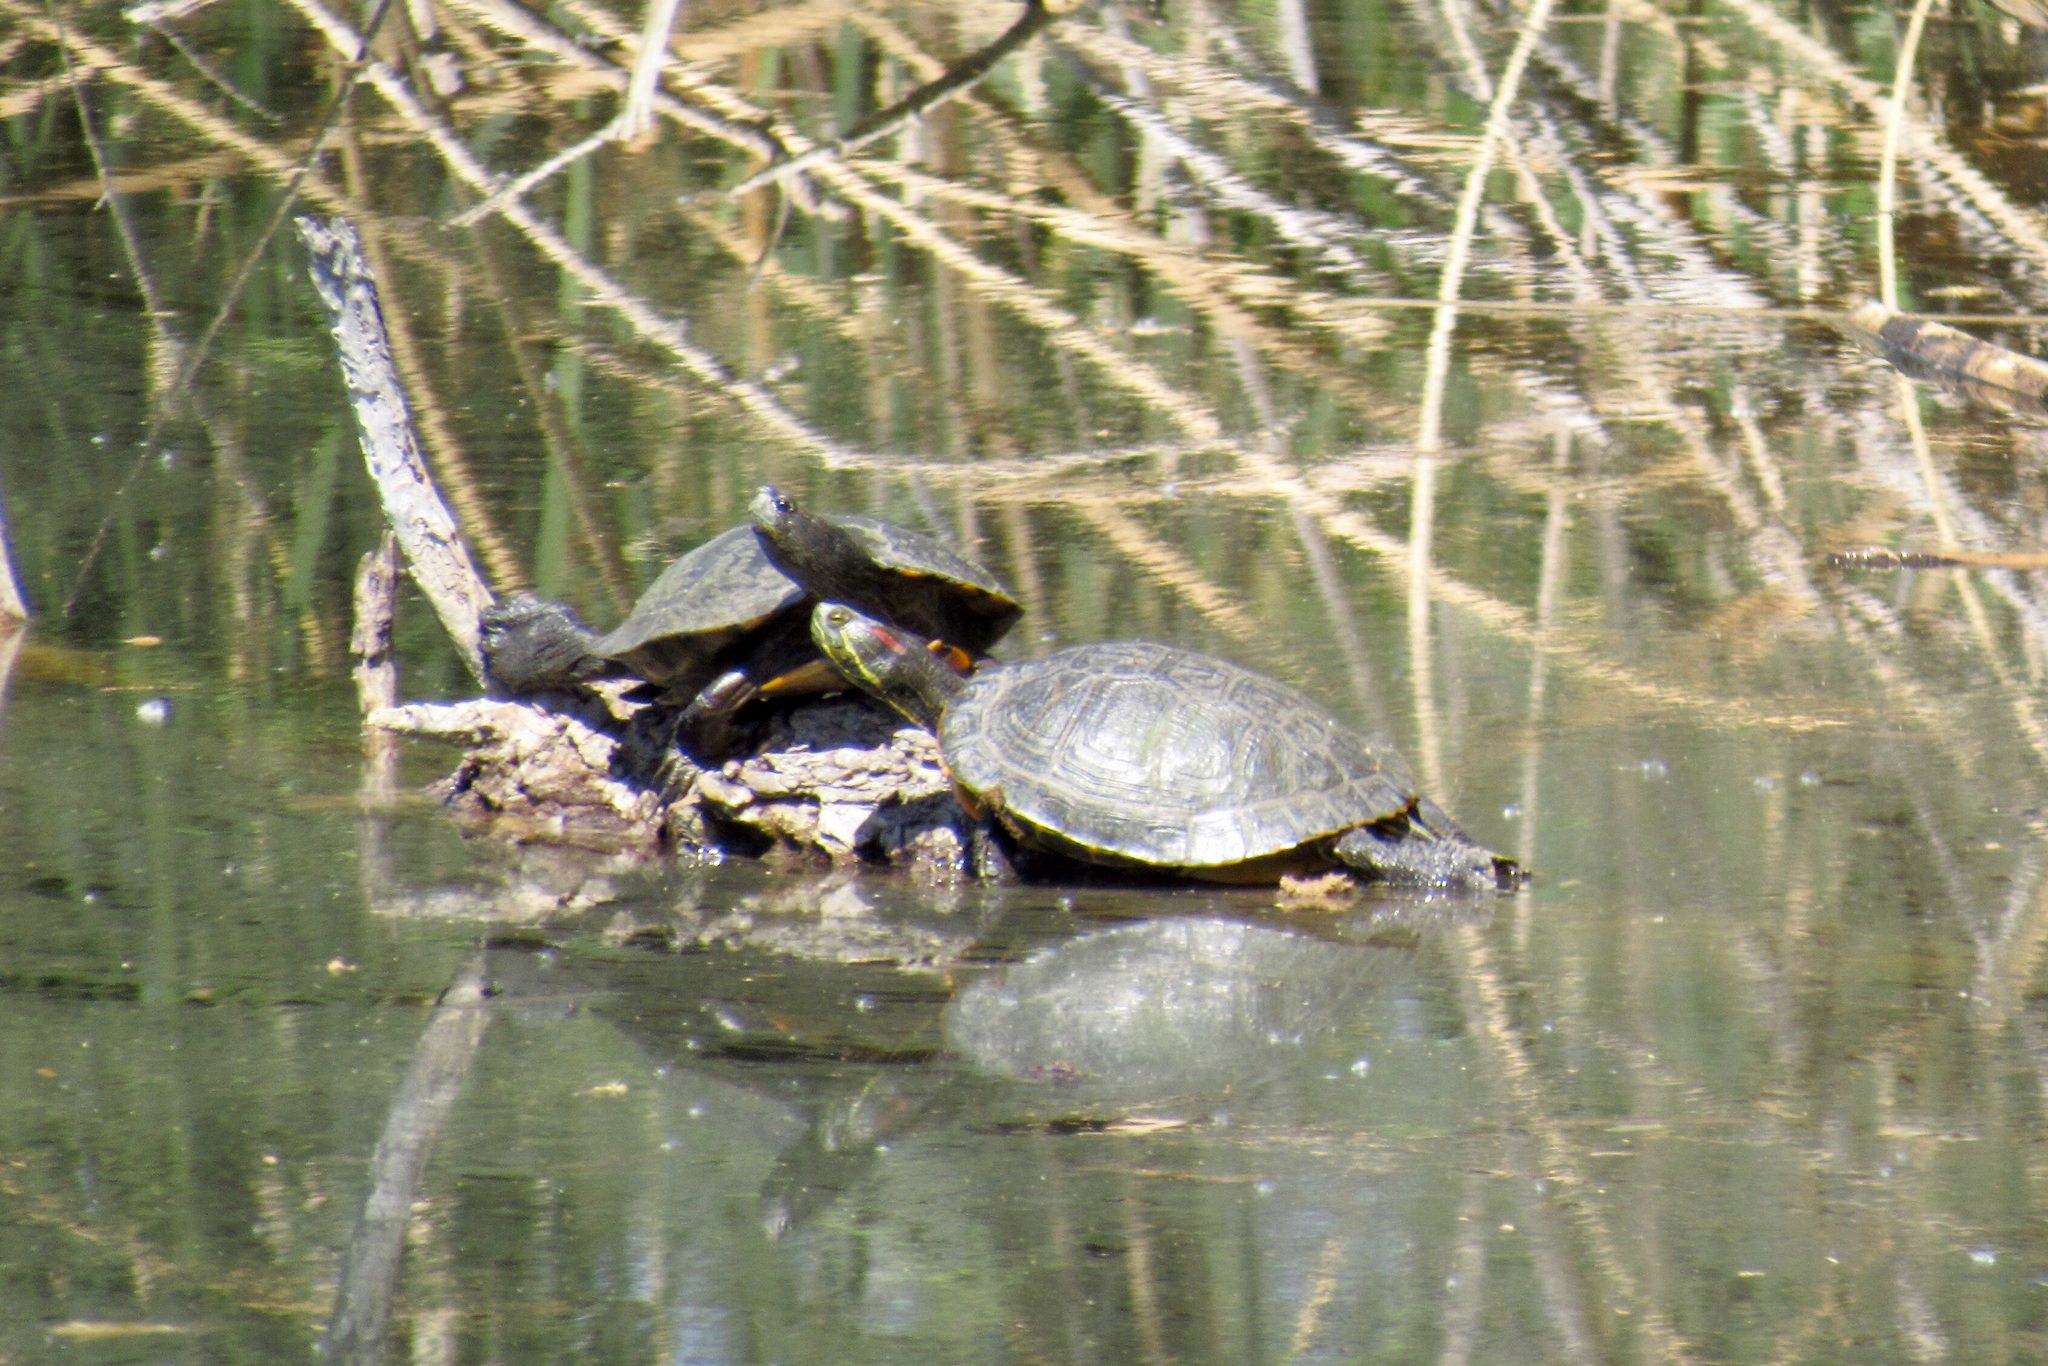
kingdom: Animalia
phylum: Chordata
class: Testudines
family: Emydidae
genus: Trachemys
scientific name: Trachemys scripta
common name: Slider
